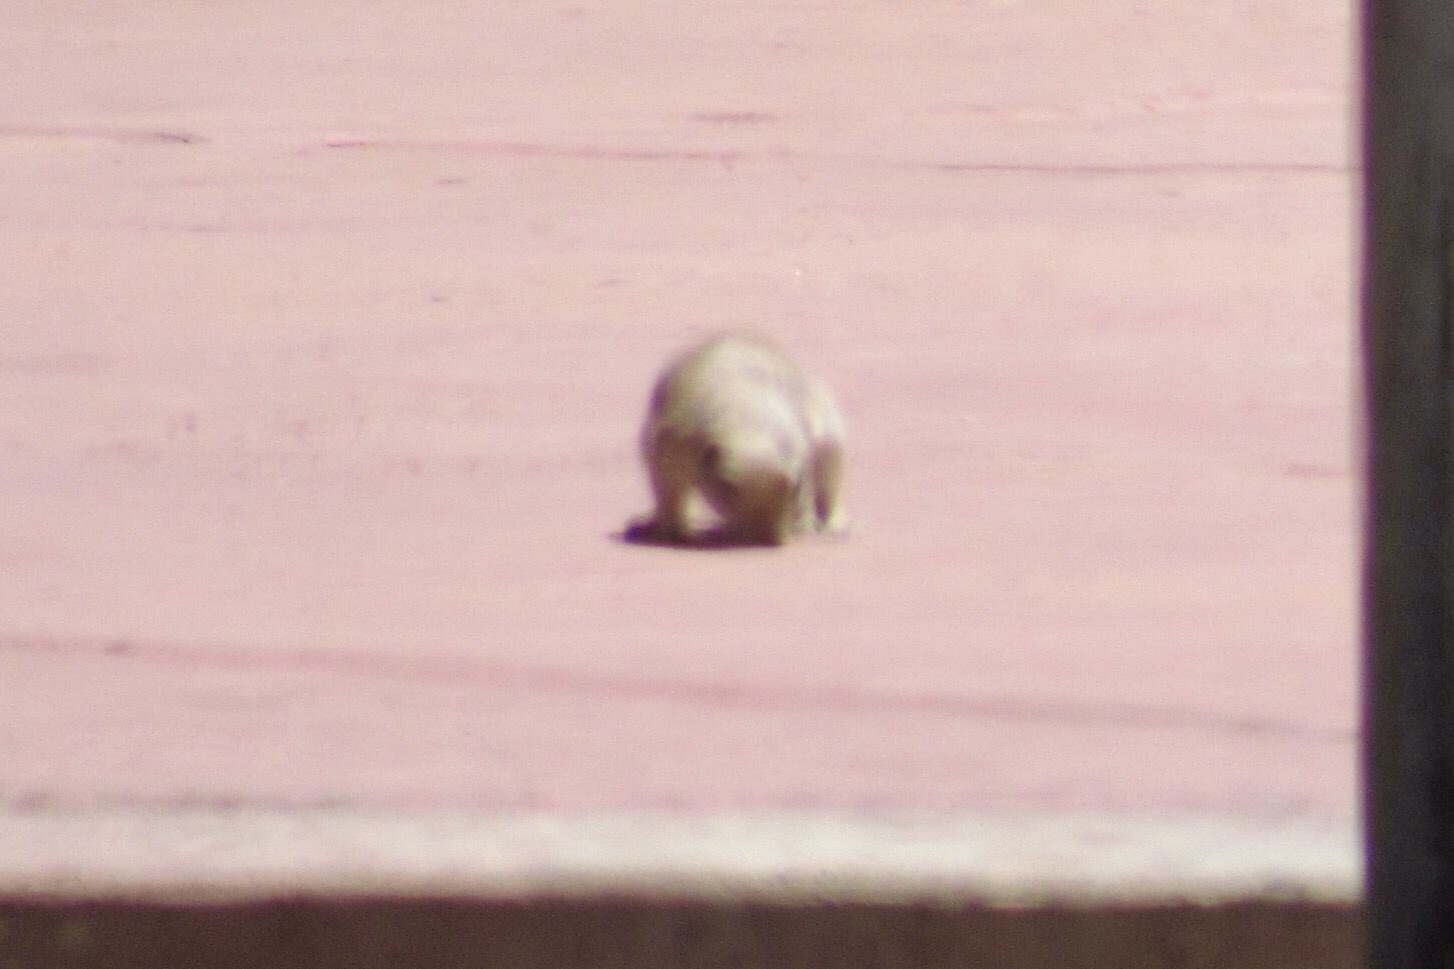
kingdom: Animalia
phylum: Chordata
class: Mammalia
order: Rodentia
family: Sciuridae
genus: Xerospermophilus
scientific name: Xerospermophilus tereticaudus
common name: Round-tailed ground squirrel
